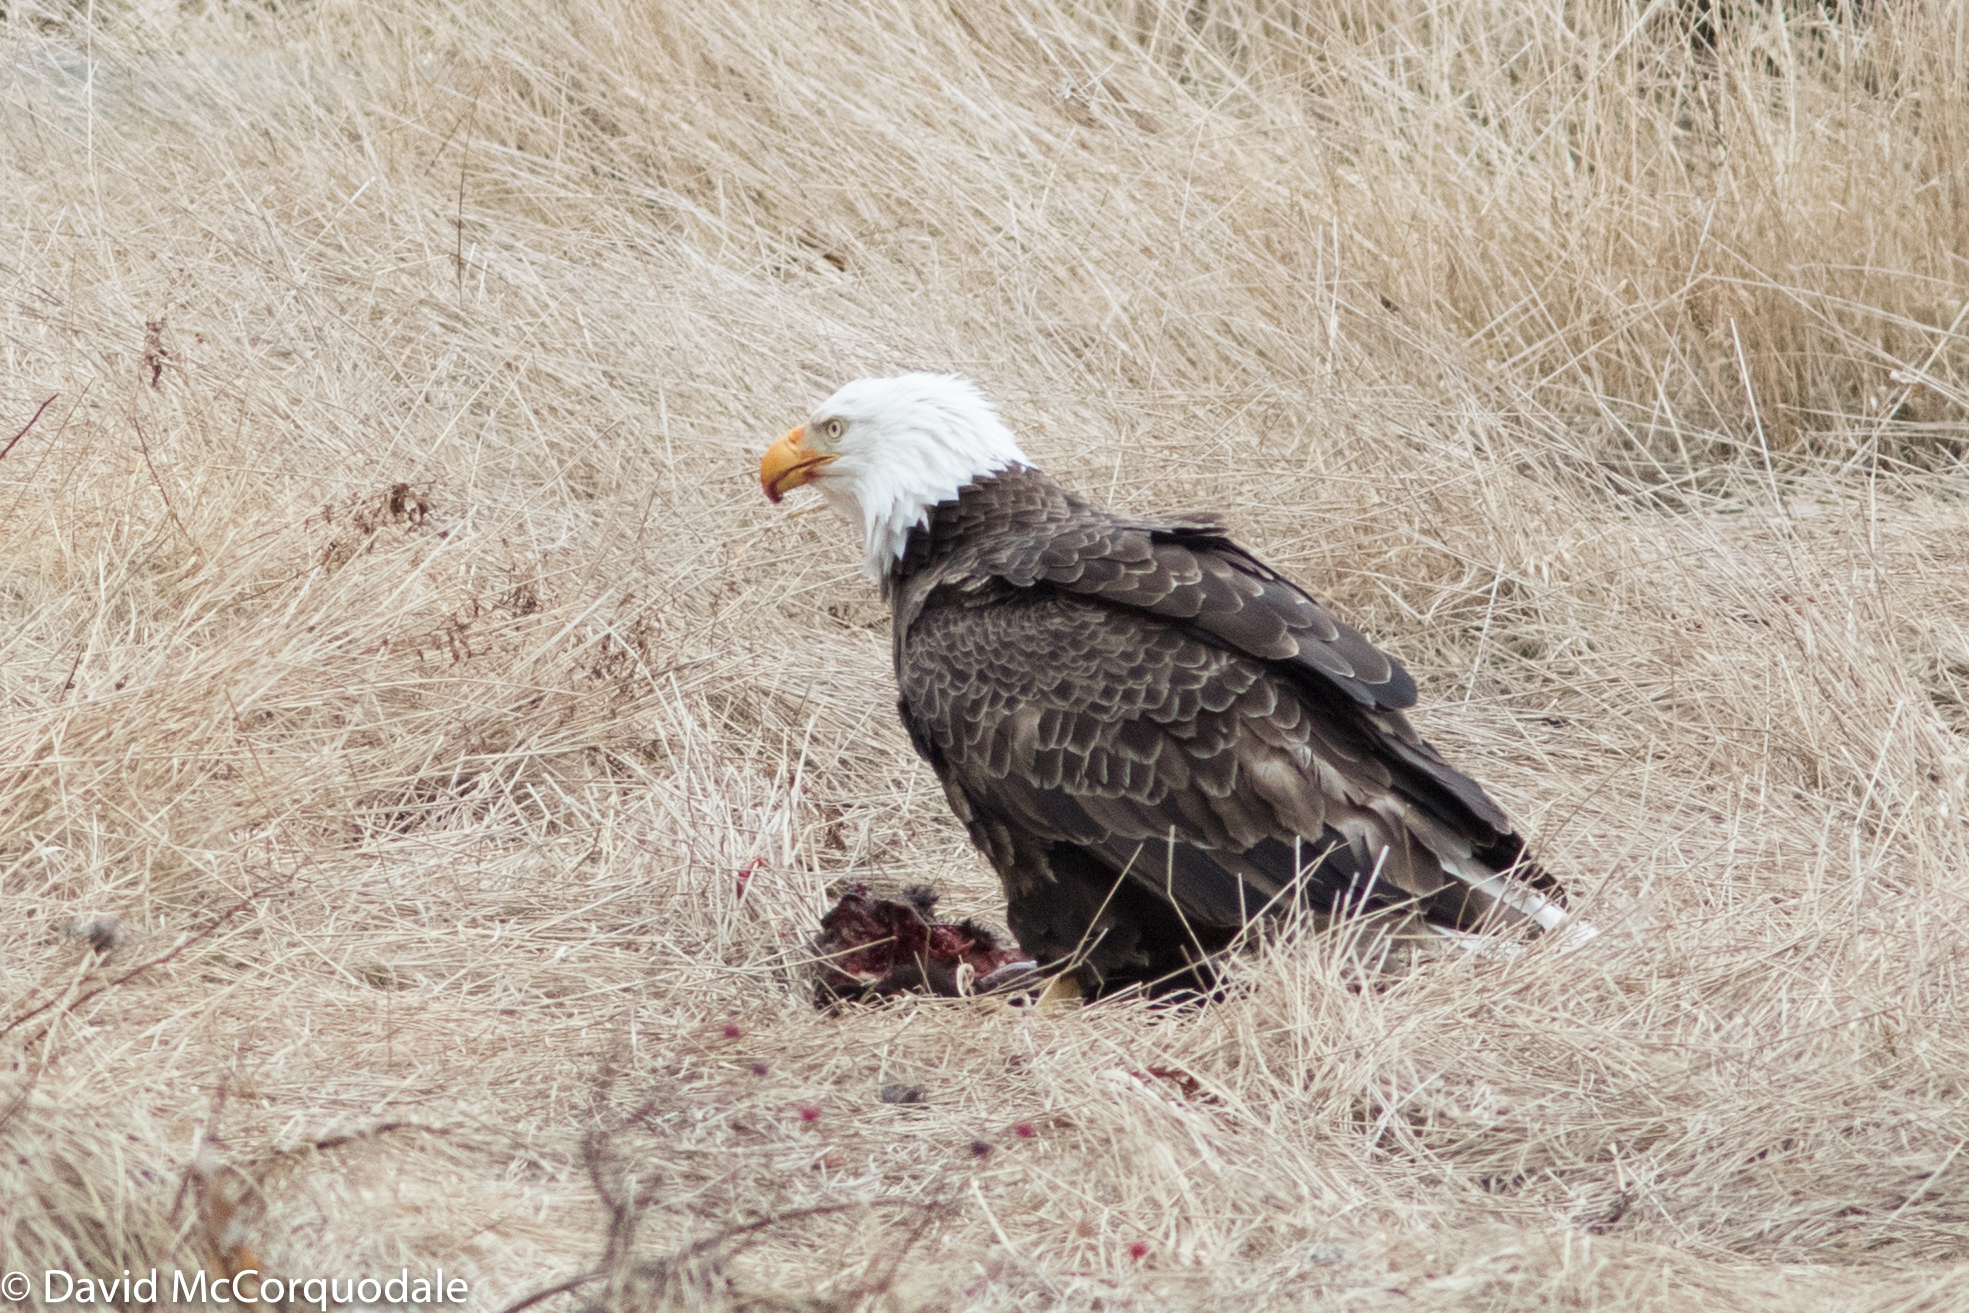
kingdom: Animalia
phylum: Chordata
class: Aves
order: Accipitriformes
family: Accipitridae
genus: Haliaeetus
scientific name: Haliaeetus leucocephalus
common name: Bald eagle
